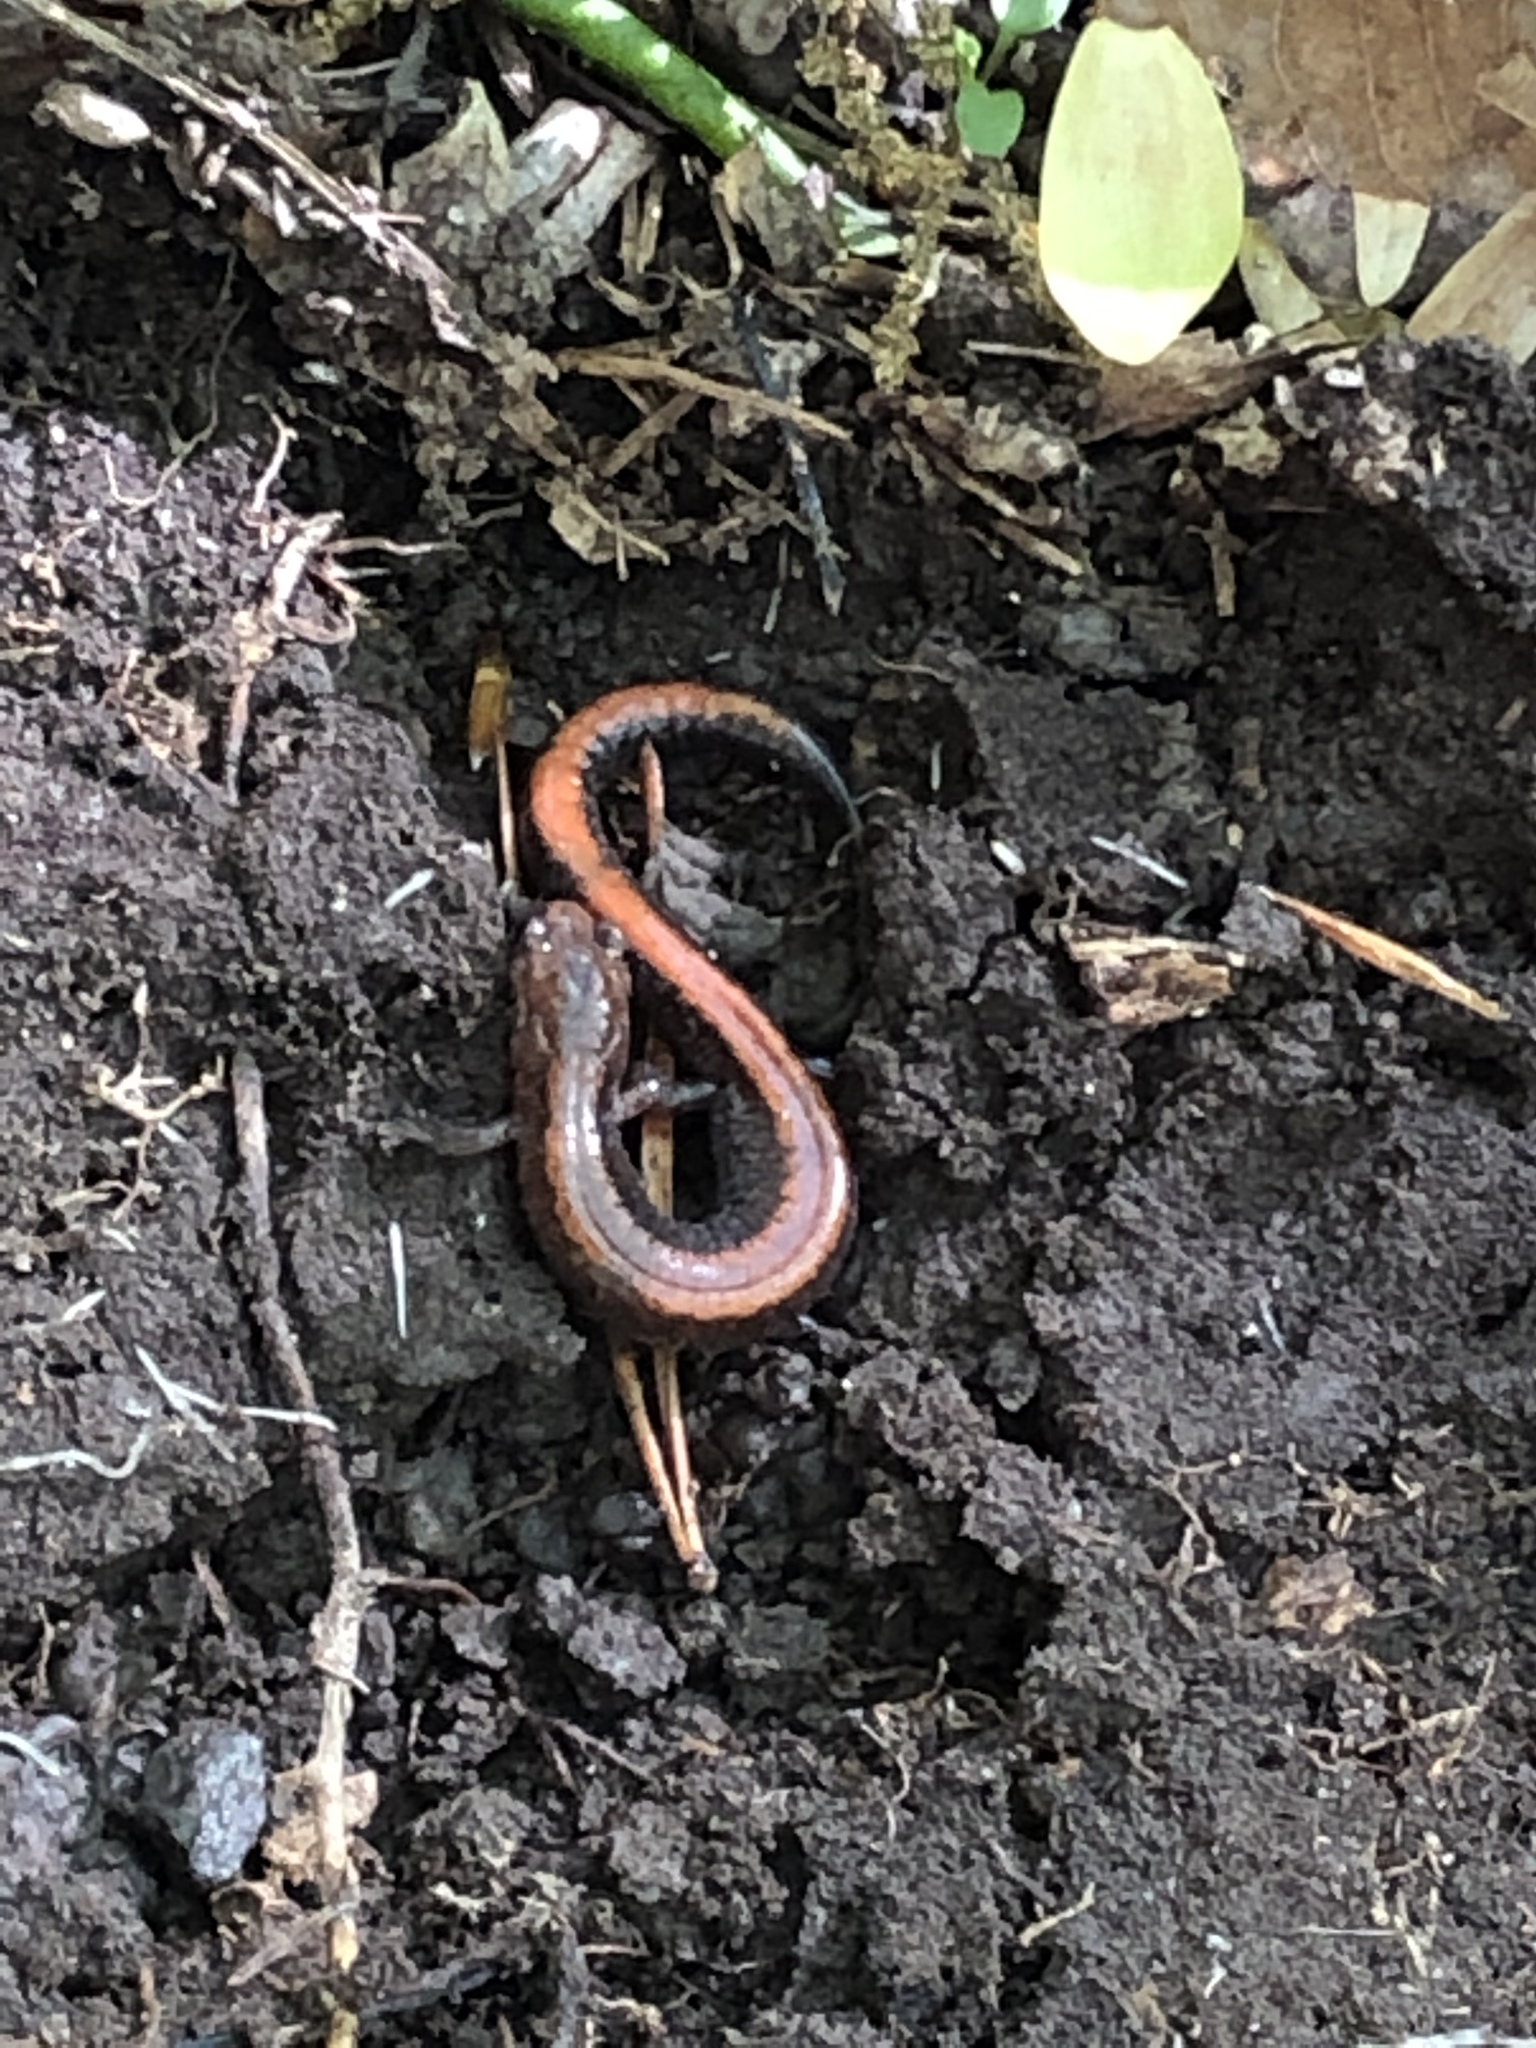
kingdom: Animalia
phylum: Chordata
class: Amphibia
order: Caudata
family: Plethodontidae
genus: Plethodon
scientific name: Plethodon cinereus
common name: Redback salamander
